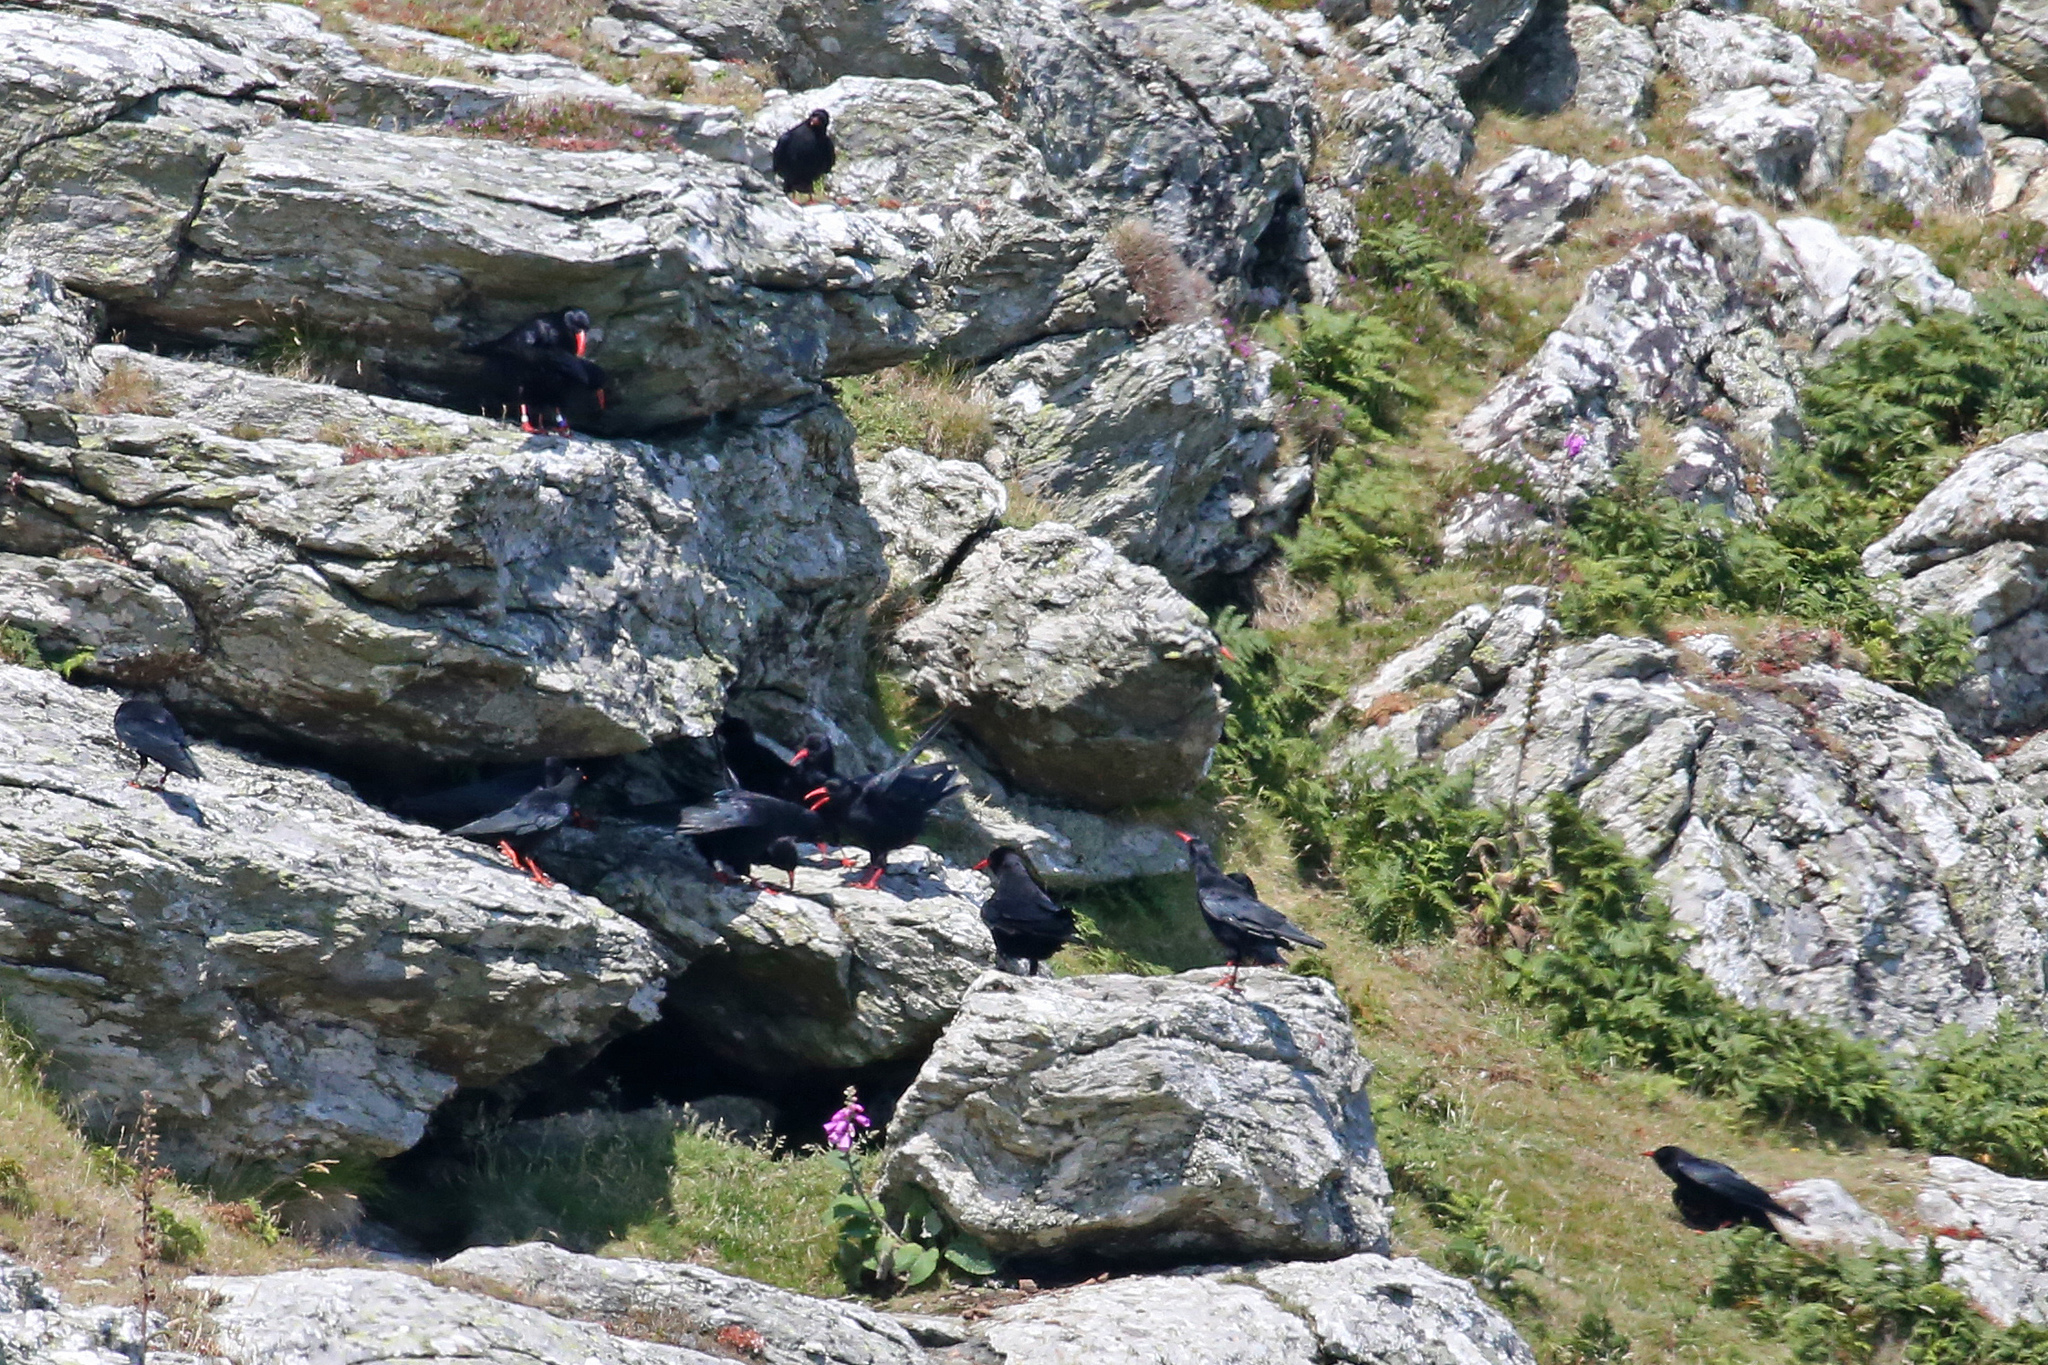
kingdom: Animalia
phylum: Chordata
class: Aves
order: Passeriformes
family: Corvidae
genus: Pyrrhocorax
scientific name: Pyrrhocorax pyrrhocorax
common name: Red-billed chough
